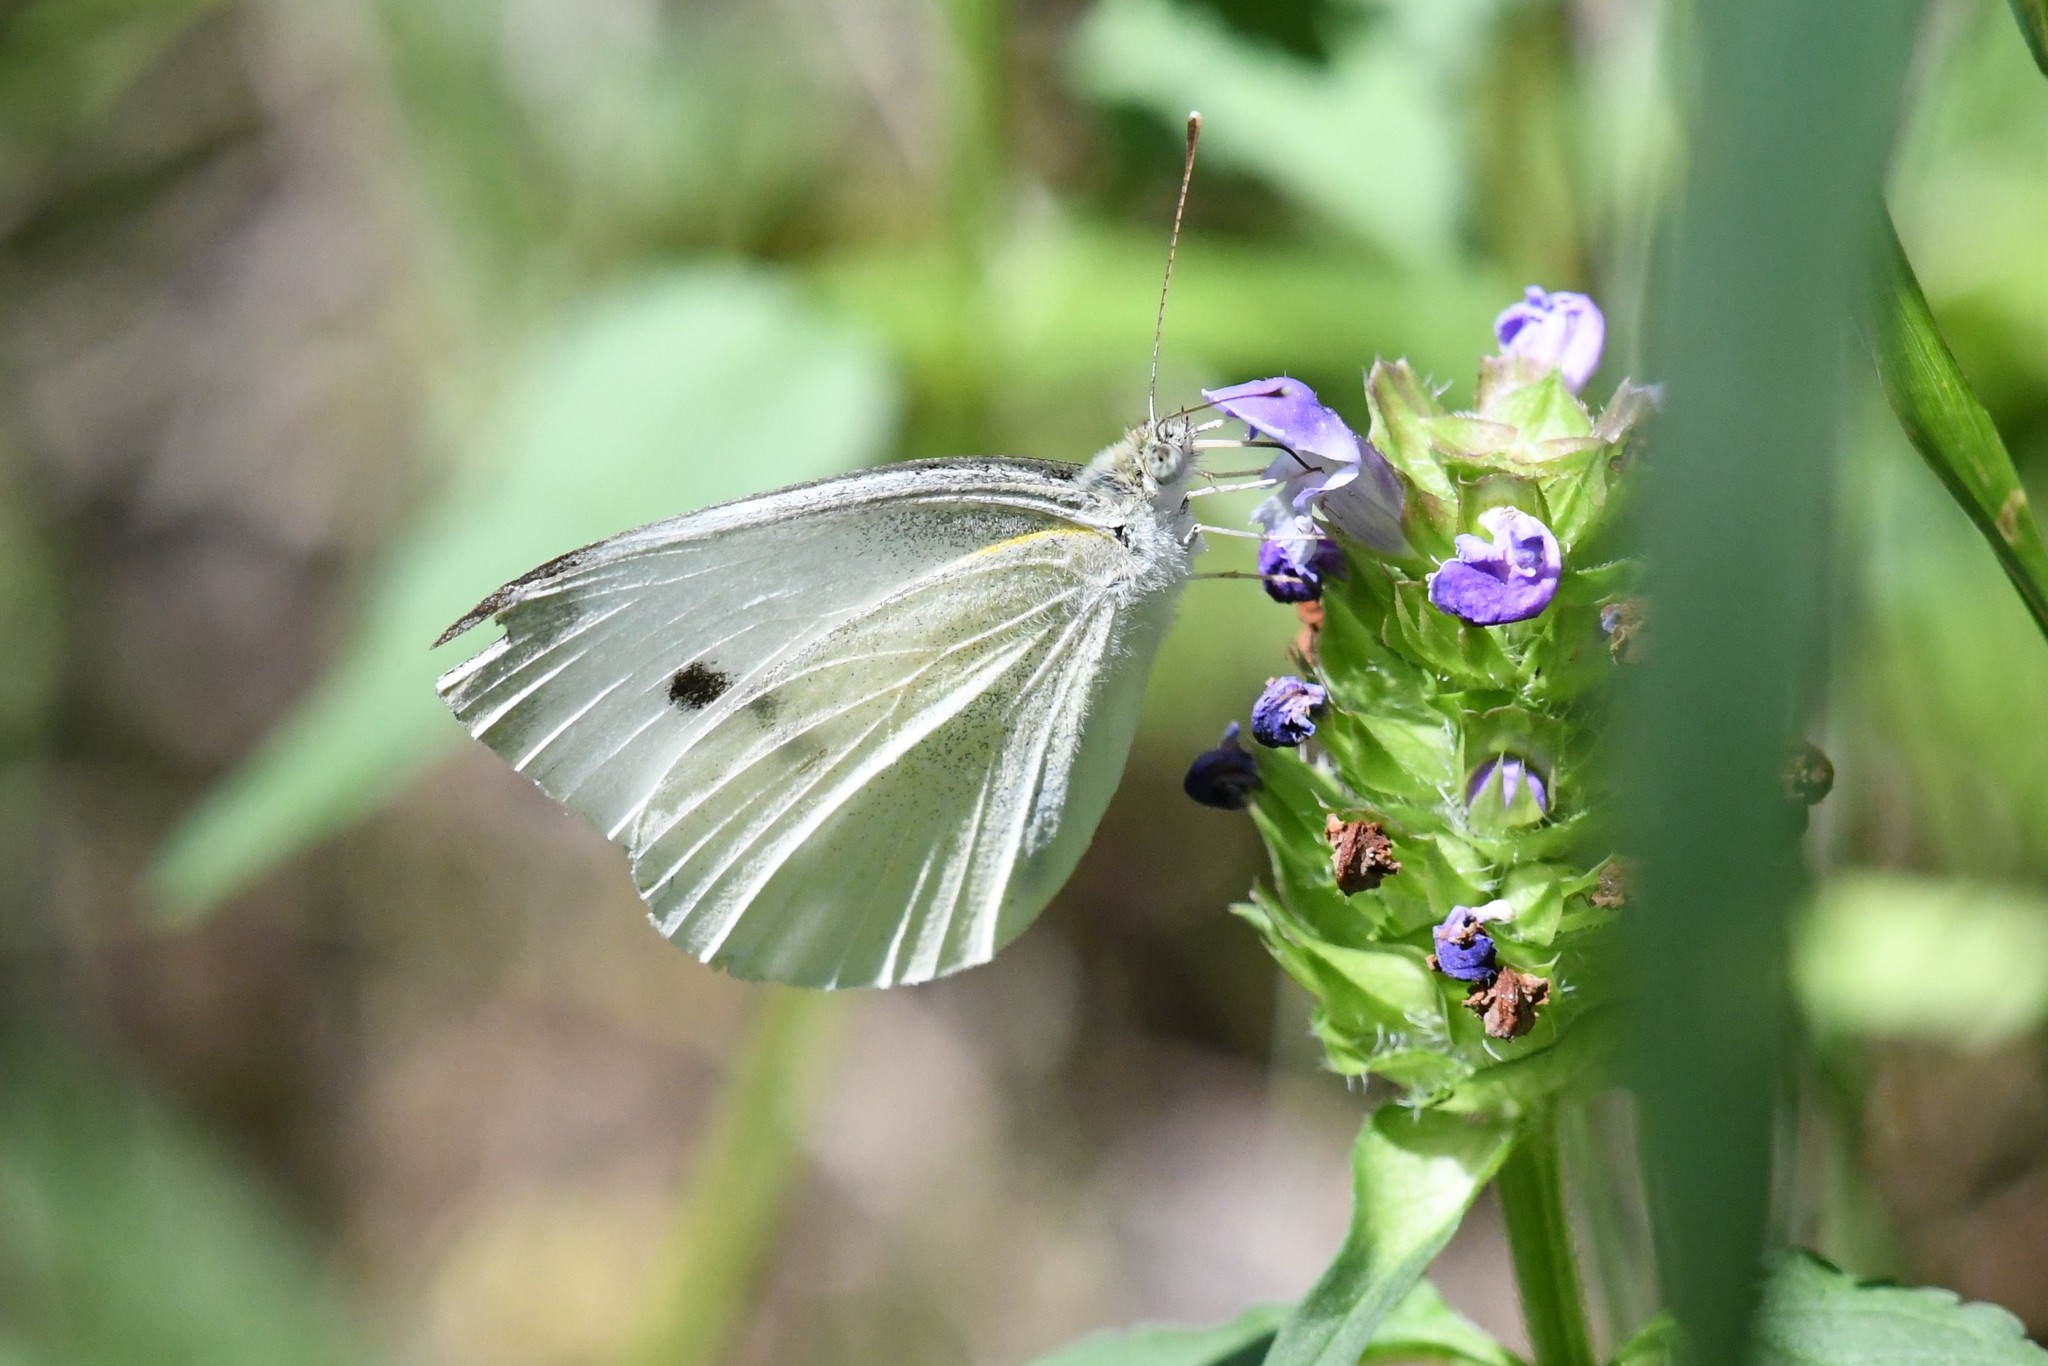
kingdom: Animalia
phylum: Arthropoda
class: Insecta
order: Lepidoptera
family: Pieridae
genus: Pieris
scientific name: Pieris rapae
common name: Small white
